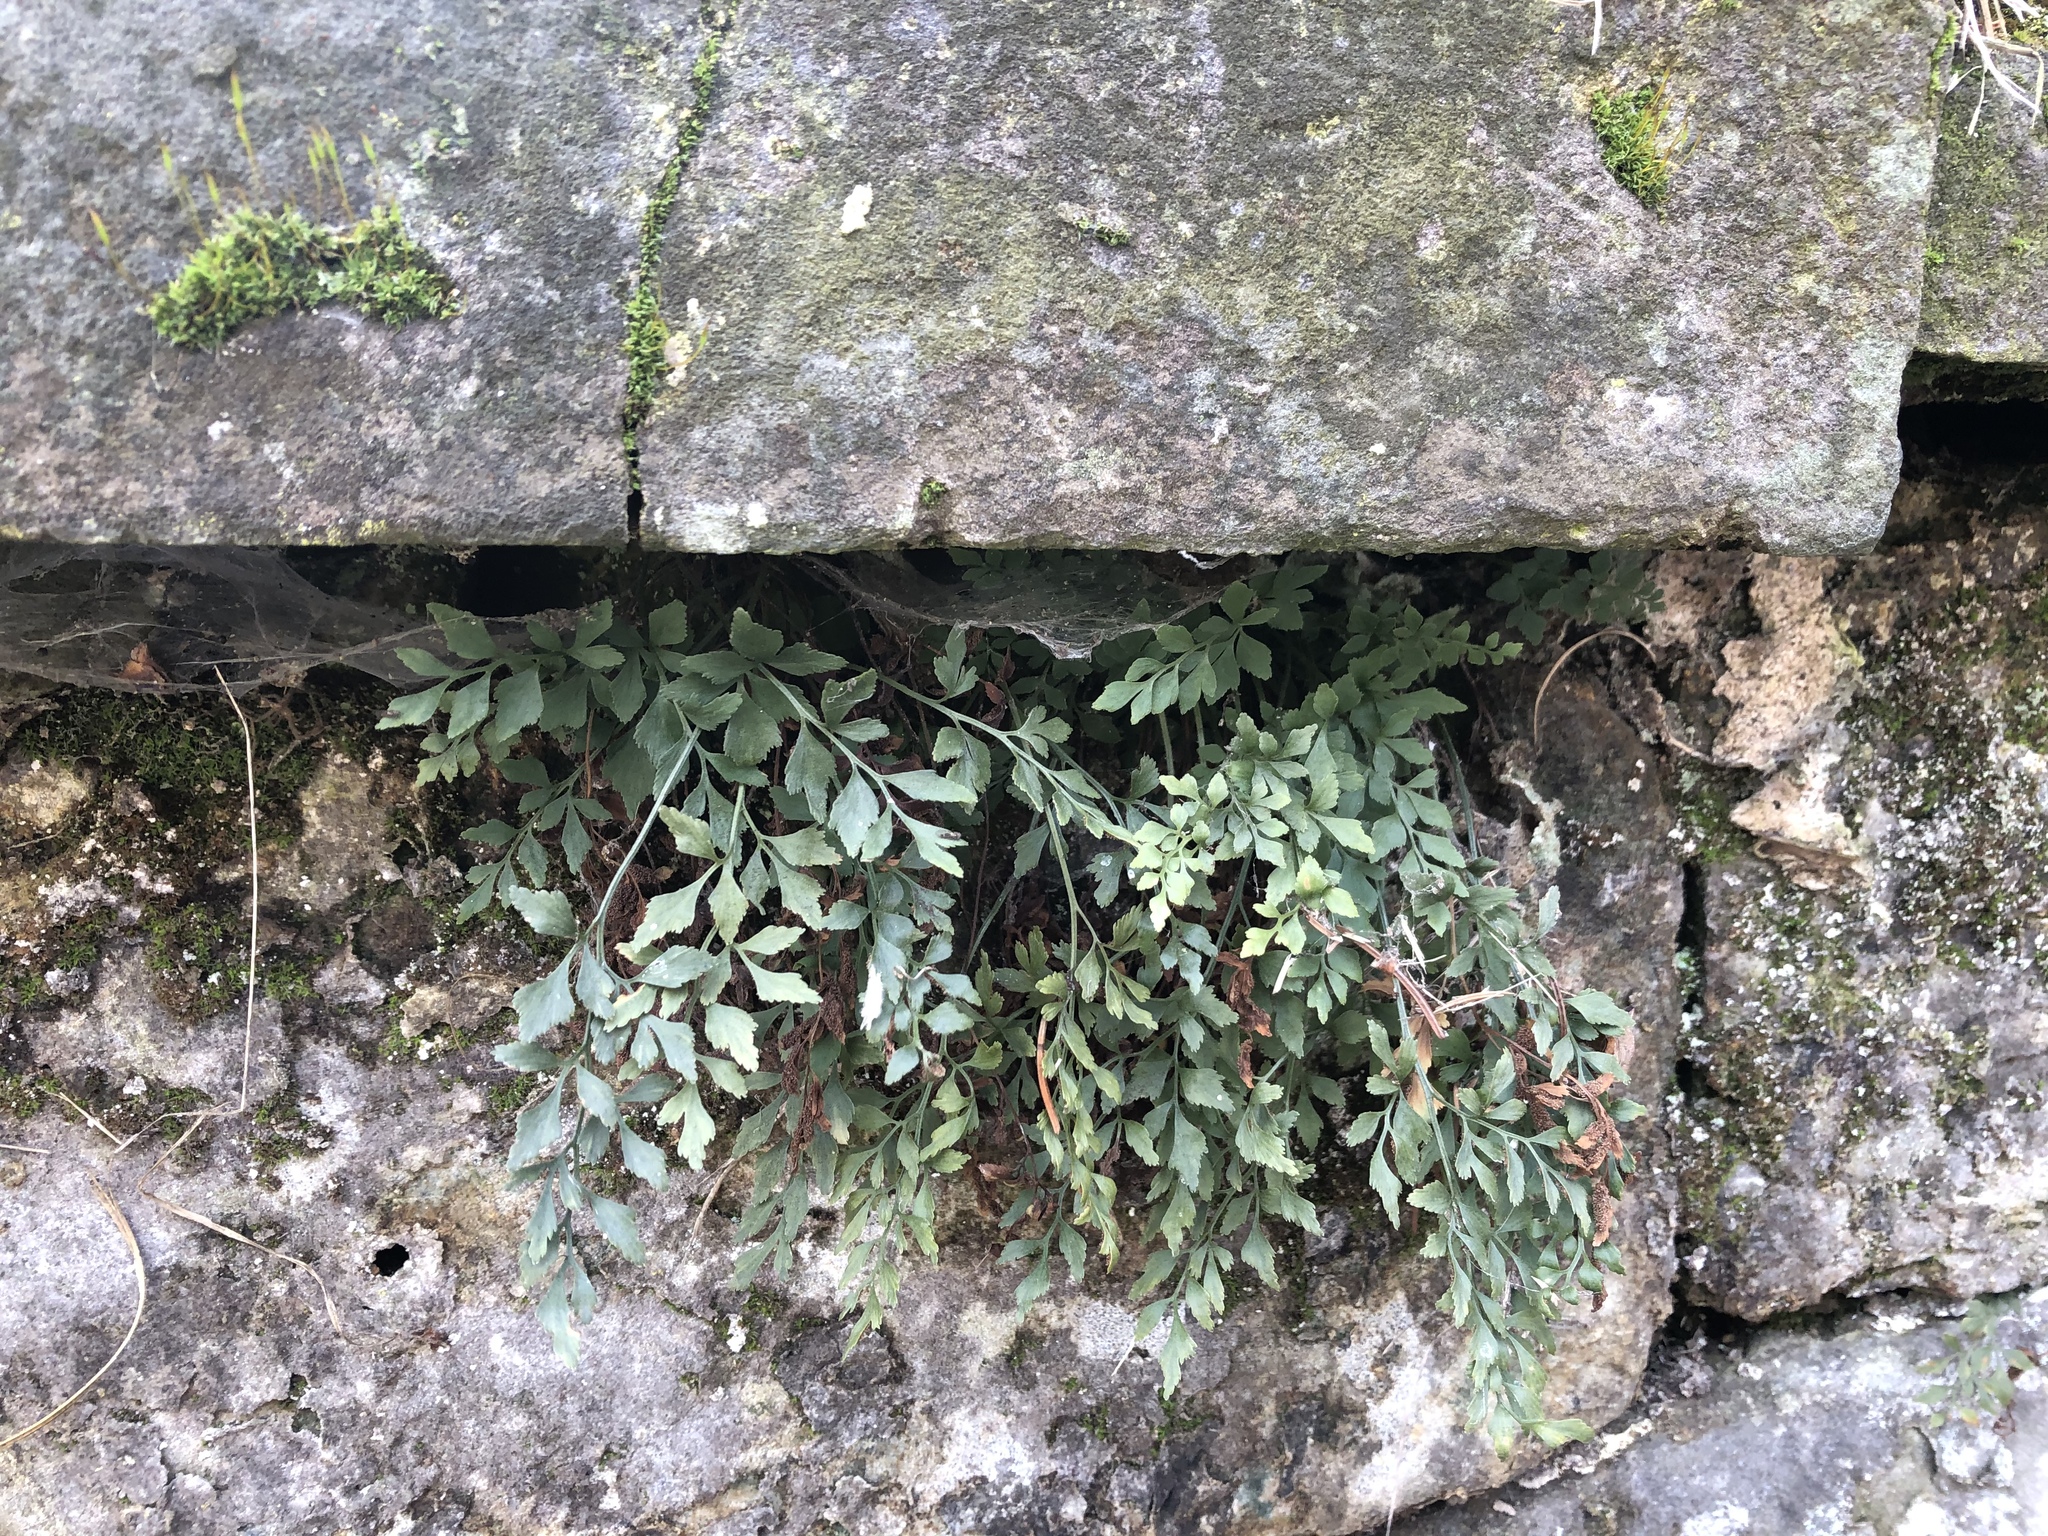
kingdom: Plantae
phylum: Tracheophyta
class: Polypodiopsida
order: Polypodiales
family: Aspleniaceae
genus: Asplenium
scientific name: Asplenium ruta-muraria
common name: Wall-rue
